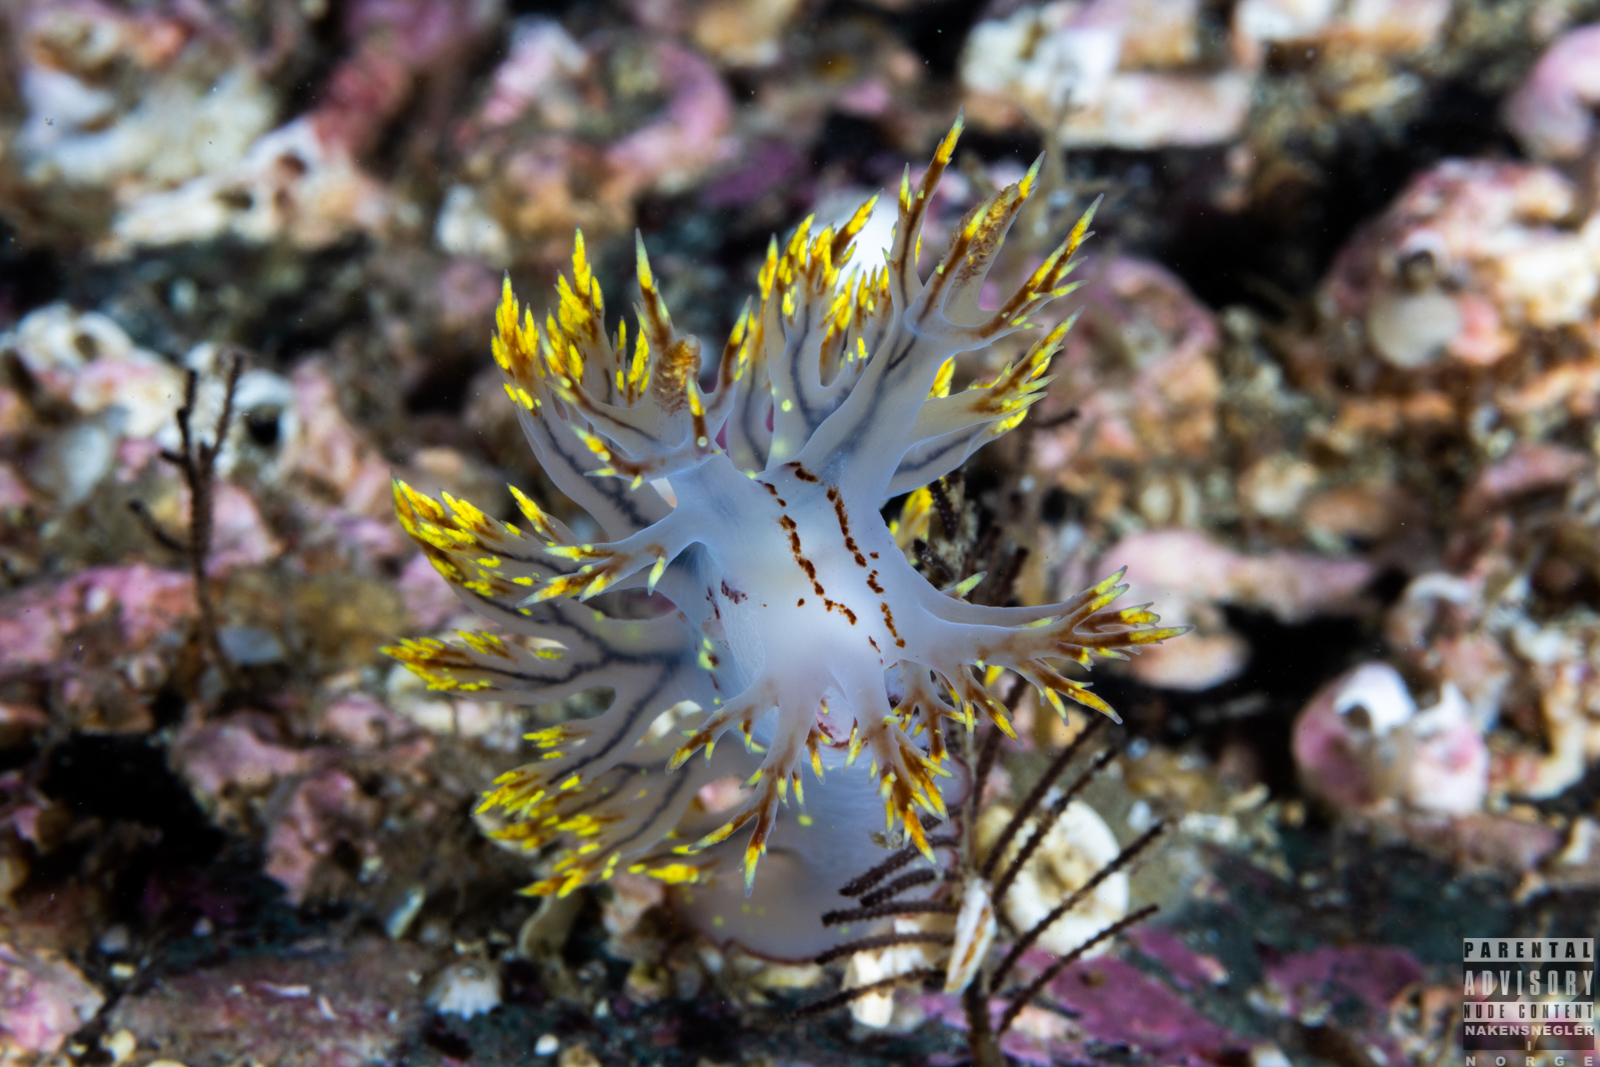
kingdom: Animalia
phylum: Mollusca
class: Gastropoda
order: Nudibranchia
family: Dendronotidae
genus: Dendronotus
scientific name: Dendronotus yrjargul
